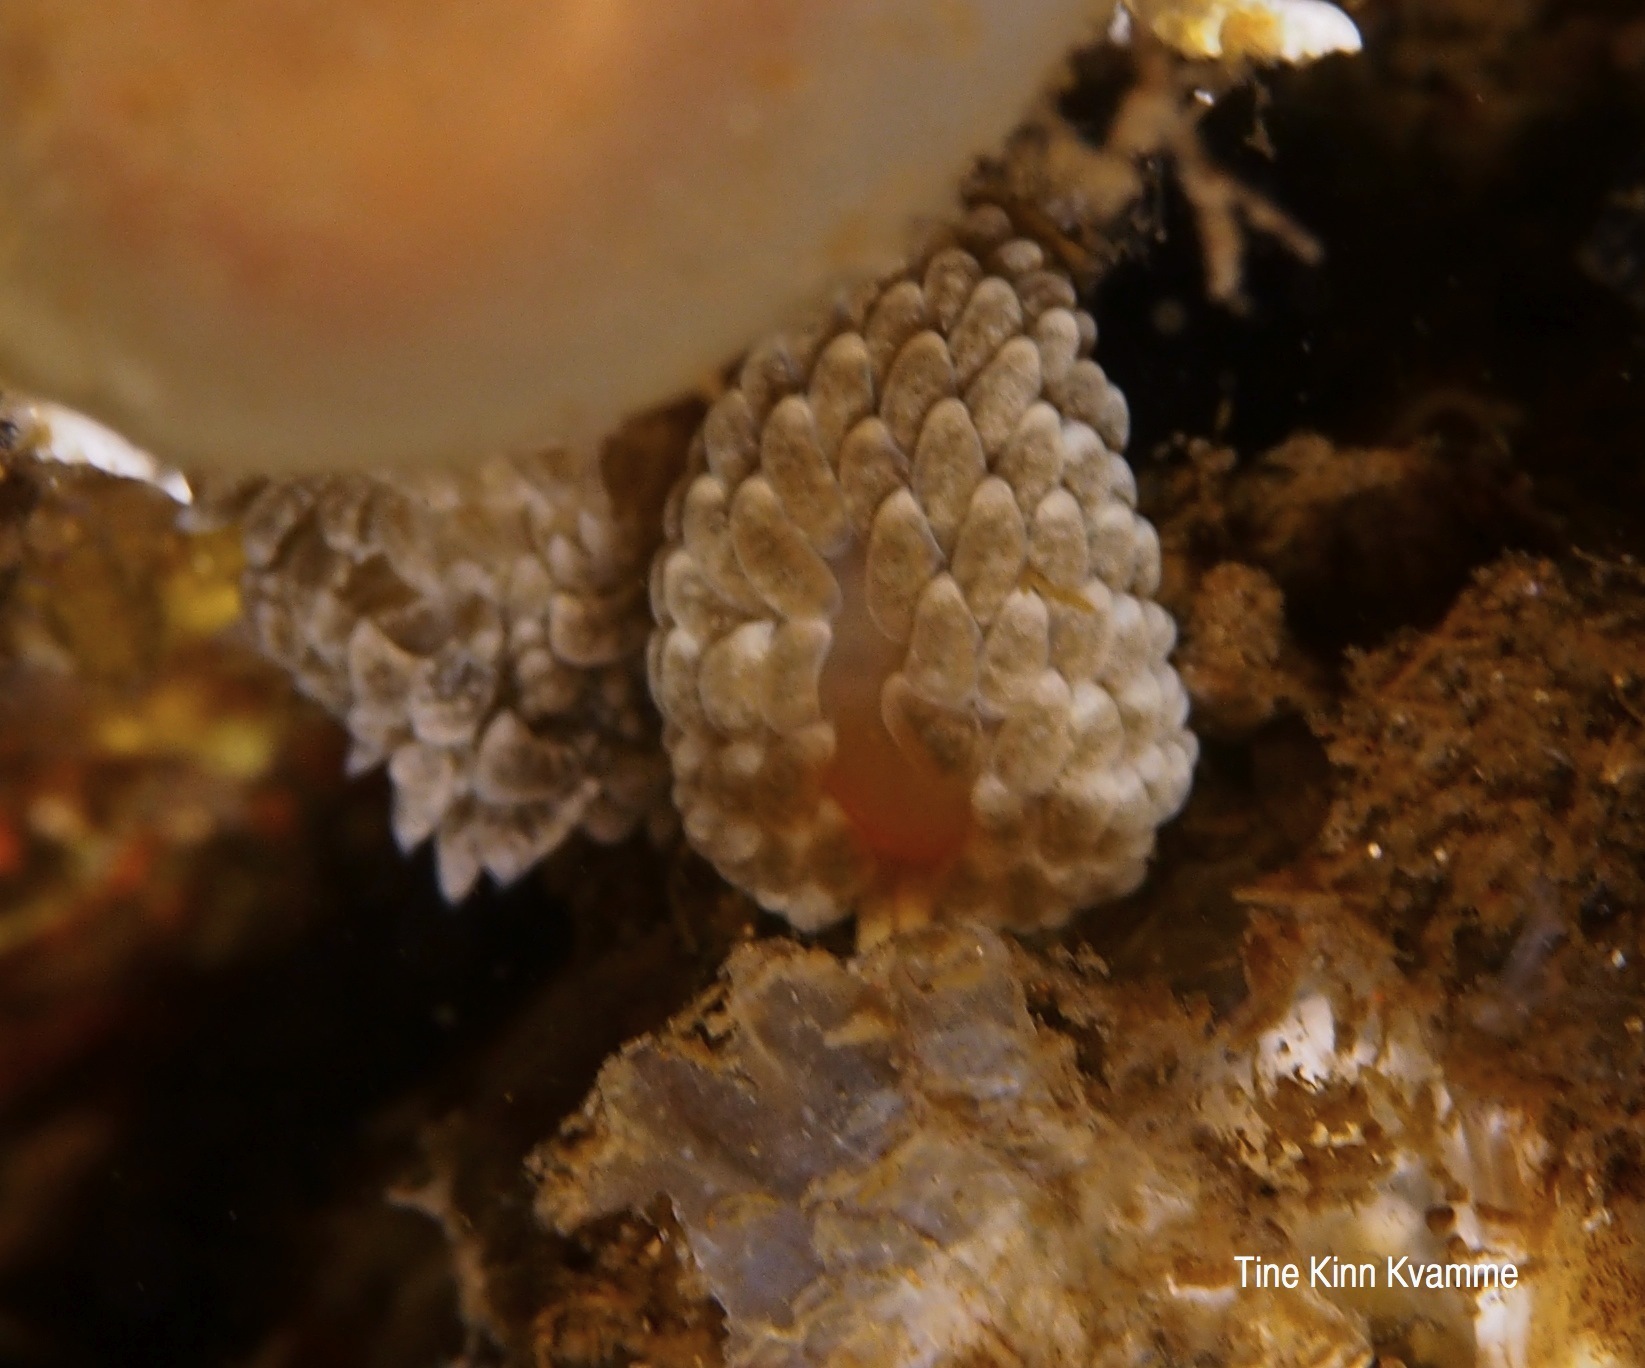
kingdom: Animalia
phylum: Mollusca
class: Gastropoda
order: Nudibranchia
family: Aeolidiidae
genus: Aeolidiella
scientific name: Aeolidiella glauca
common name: Orange-brown aeolid
